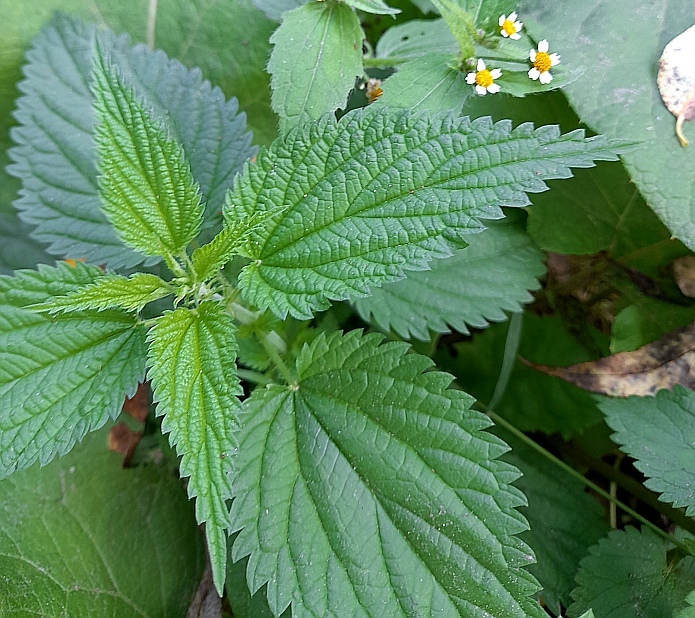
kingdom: Plantae
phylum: Tracheophyta
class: Magnoliopsida
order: Rosales
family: Urticaceae
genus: Urtica
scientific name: Urtica dioica
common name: Common nettle
